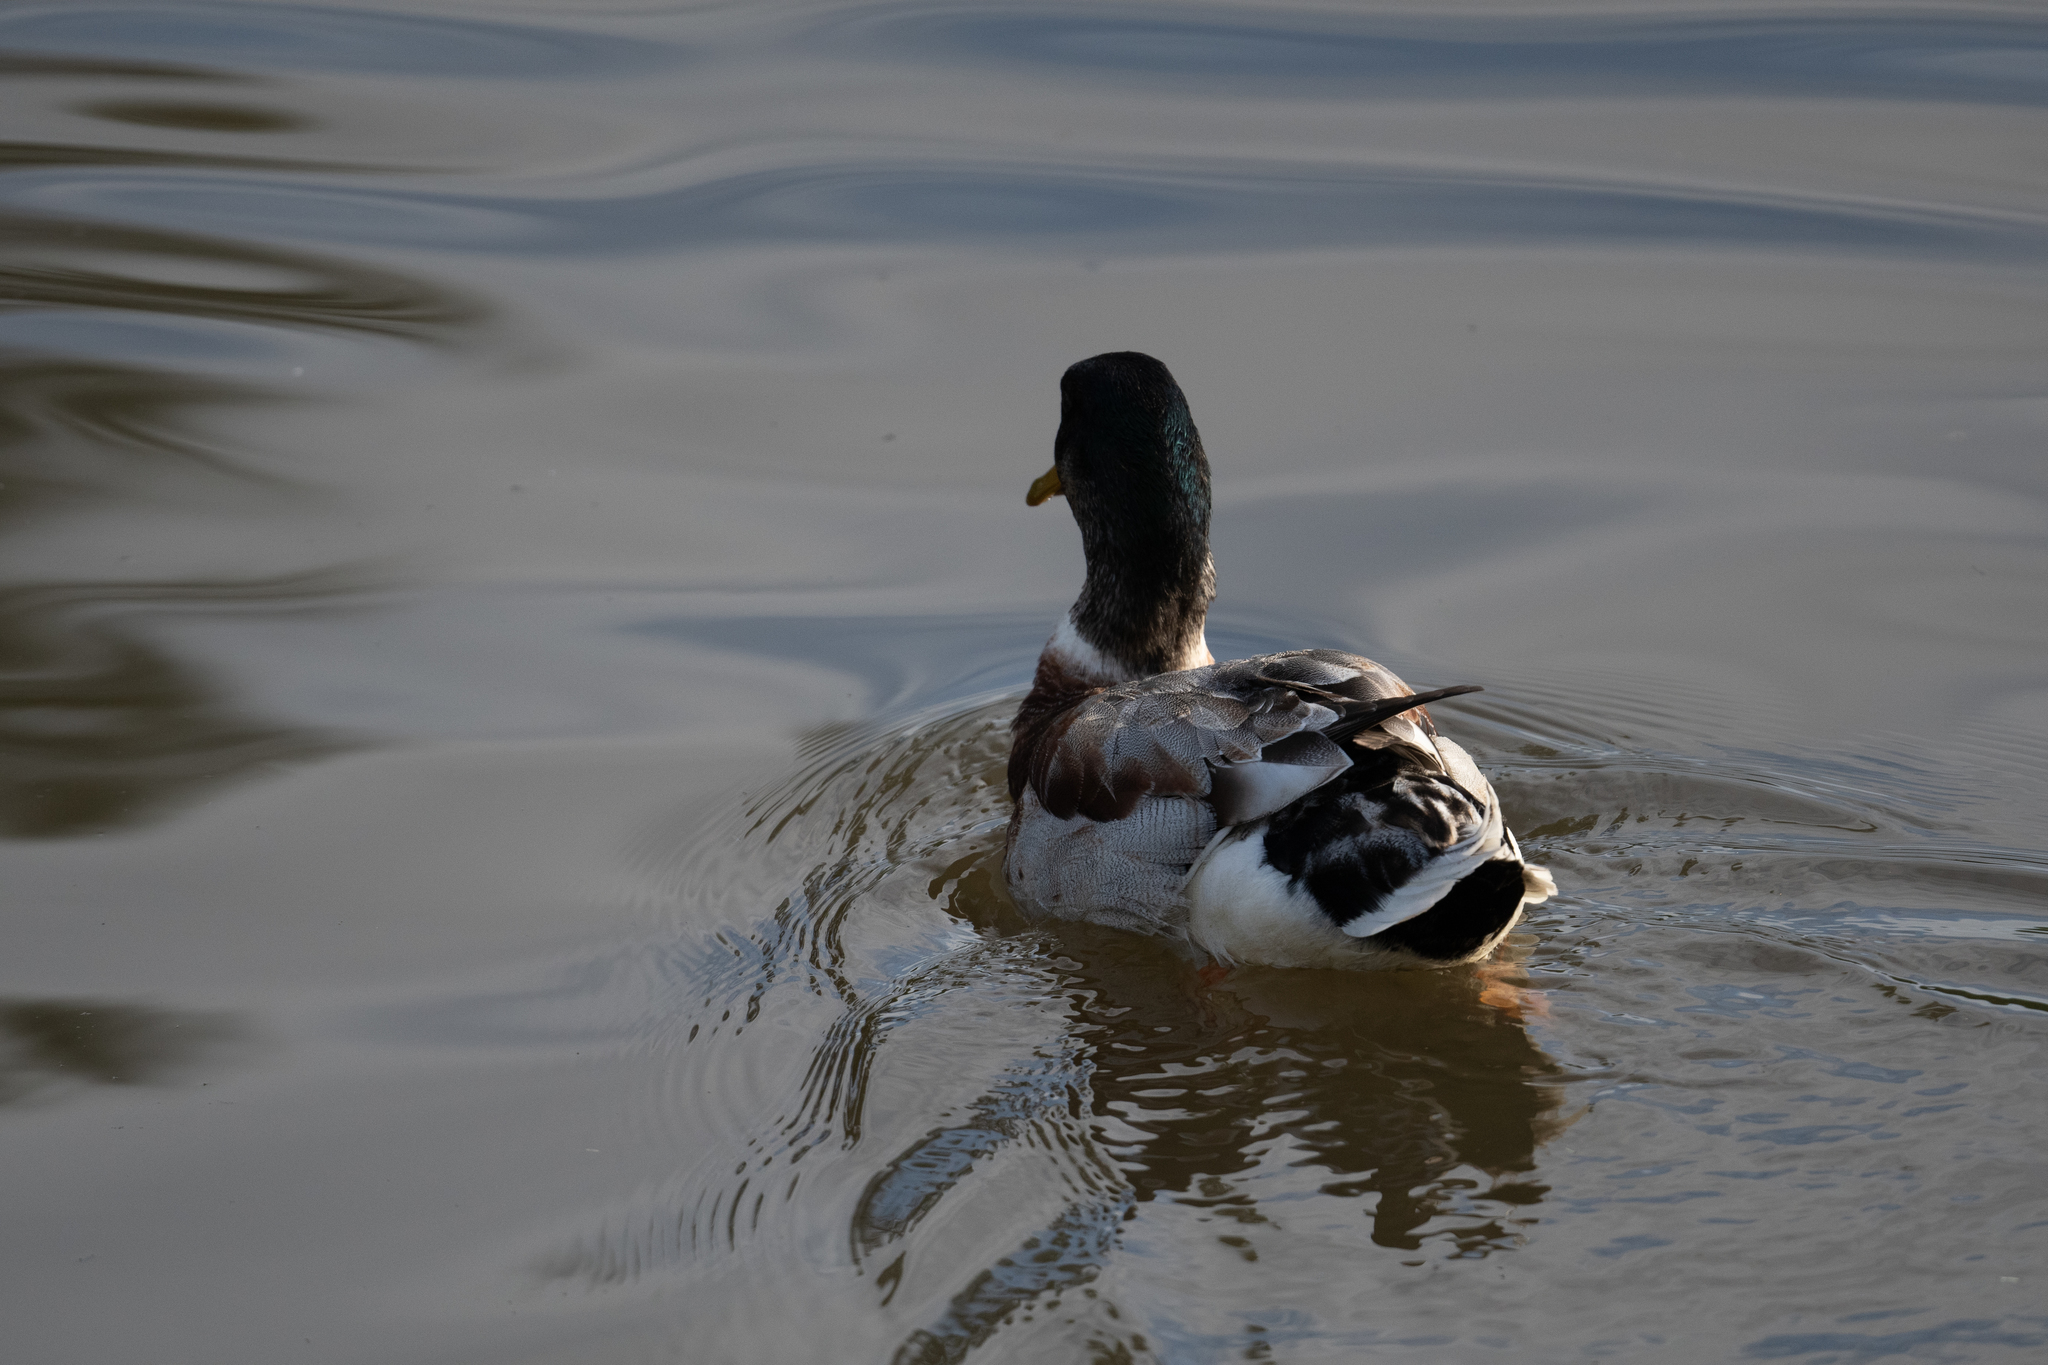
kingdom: Animalia
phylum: Chordata
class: Aves
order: Anseriformes
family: Anatidae
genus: Anas
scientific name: Anas platyrhynchos
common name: Mallard
